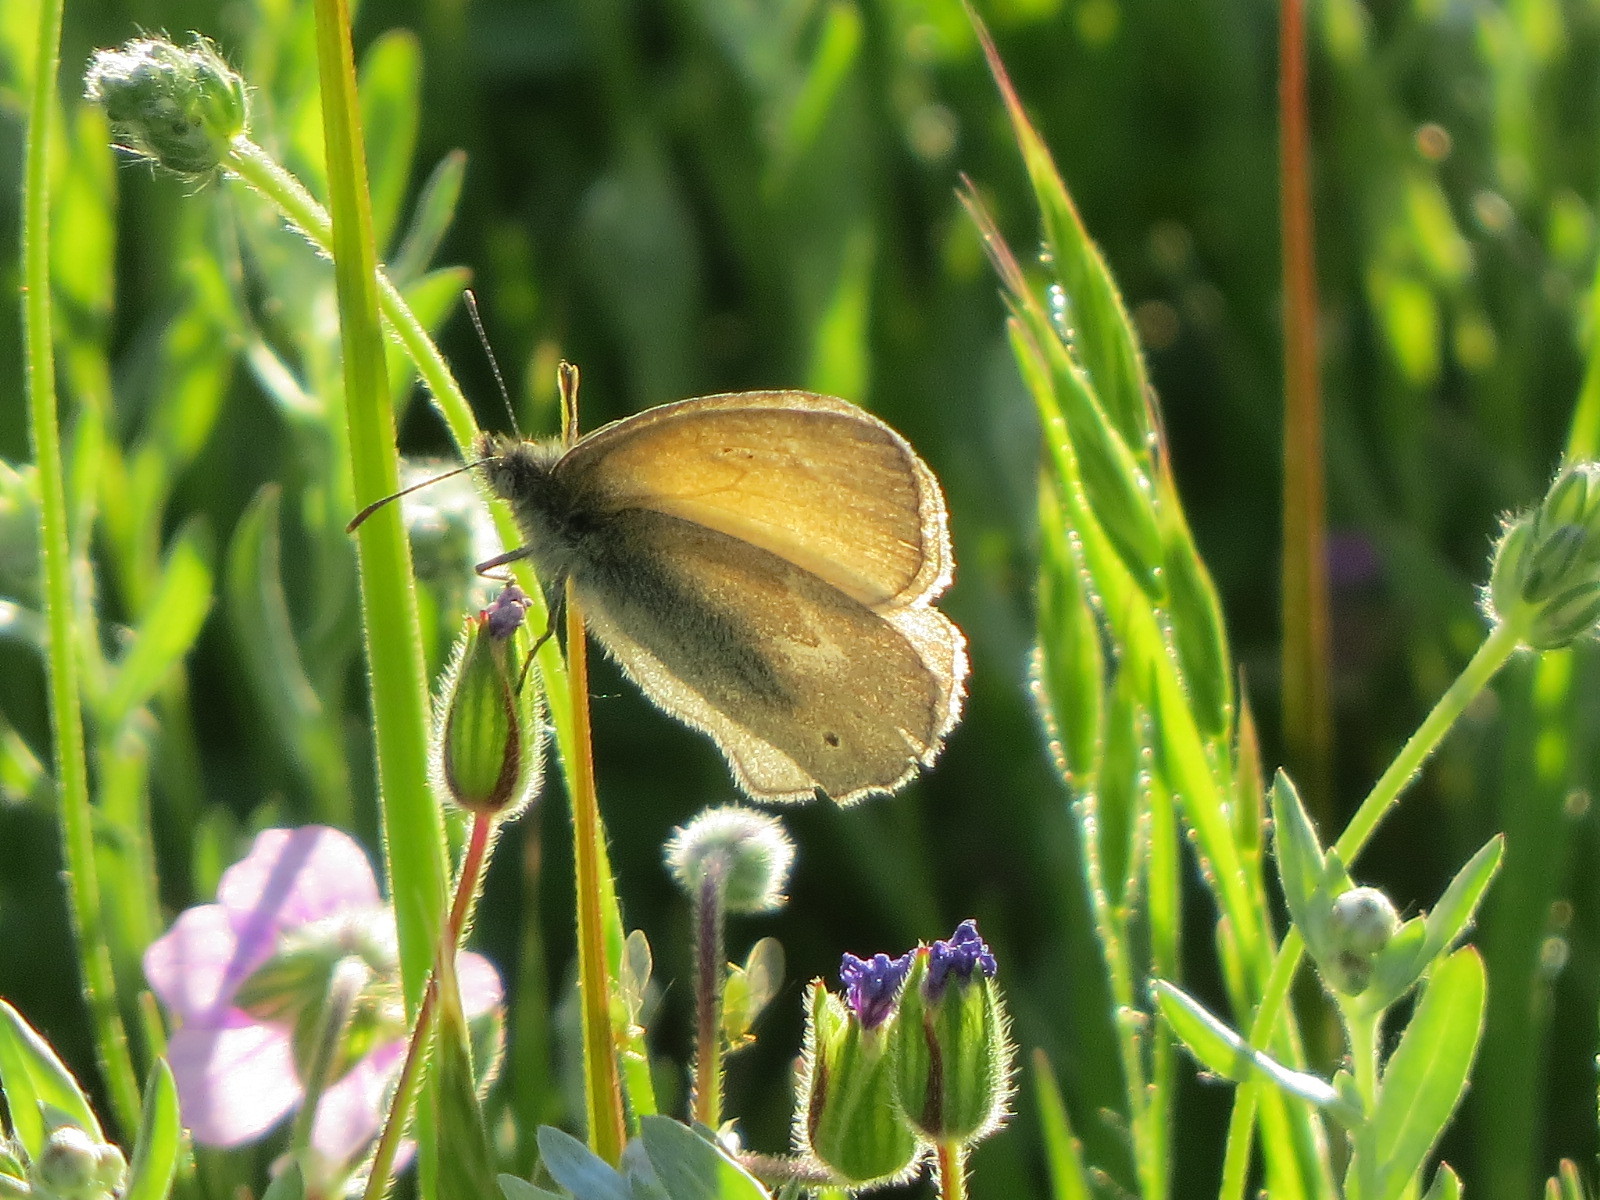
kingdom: Animalia
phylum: Arthropoda
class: Insecta
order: Lepidoptera
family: Nymphalidae
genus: Coenonympha
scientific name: Coenonympha california
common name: Common ringlet
